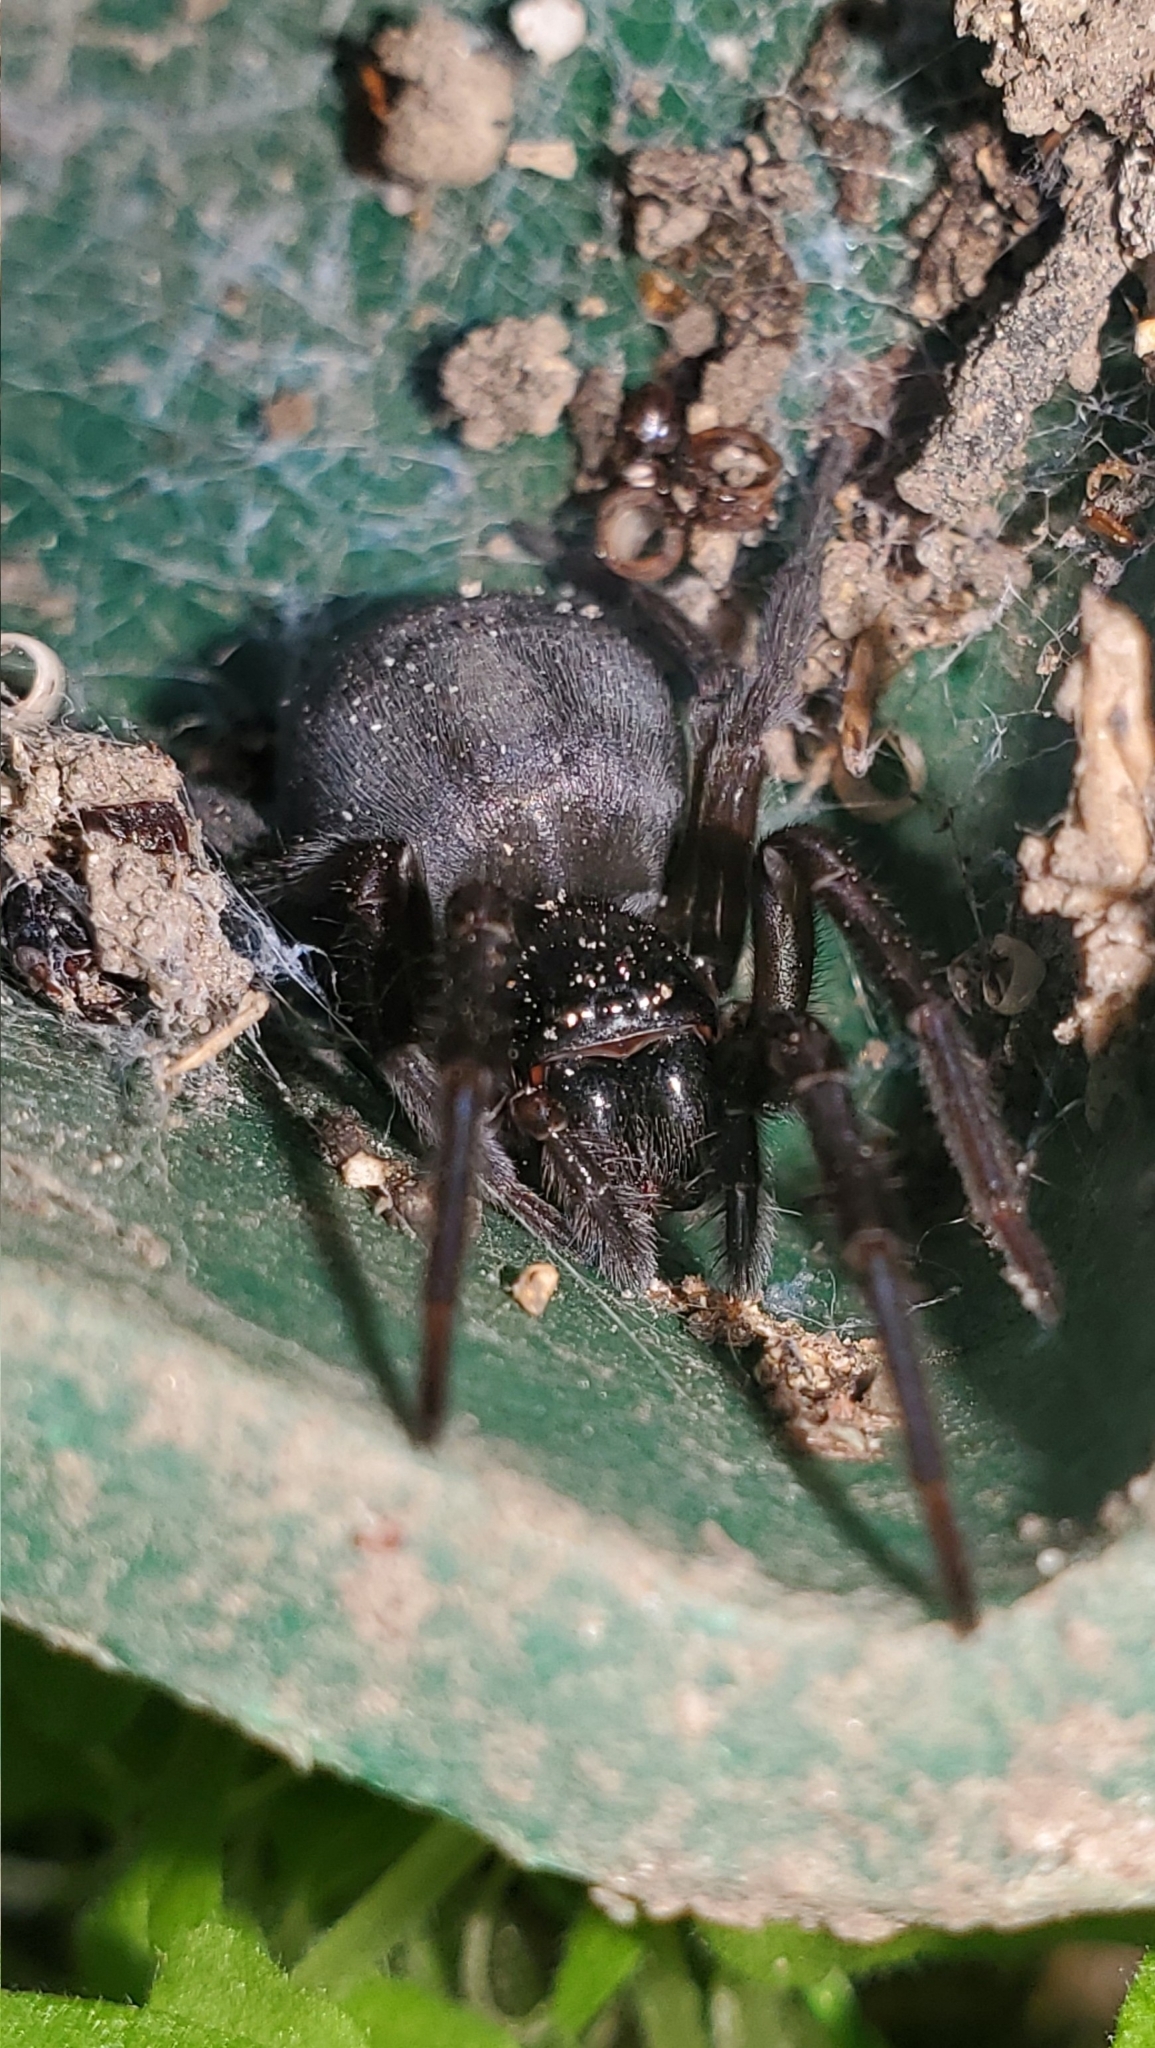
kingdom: Animalia
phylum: Arthropoda
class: Arachnida
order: Araneae
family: Amaurobiidae
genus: Amaurobius
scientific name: Amaurobius ferox
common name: Black laceweaver
